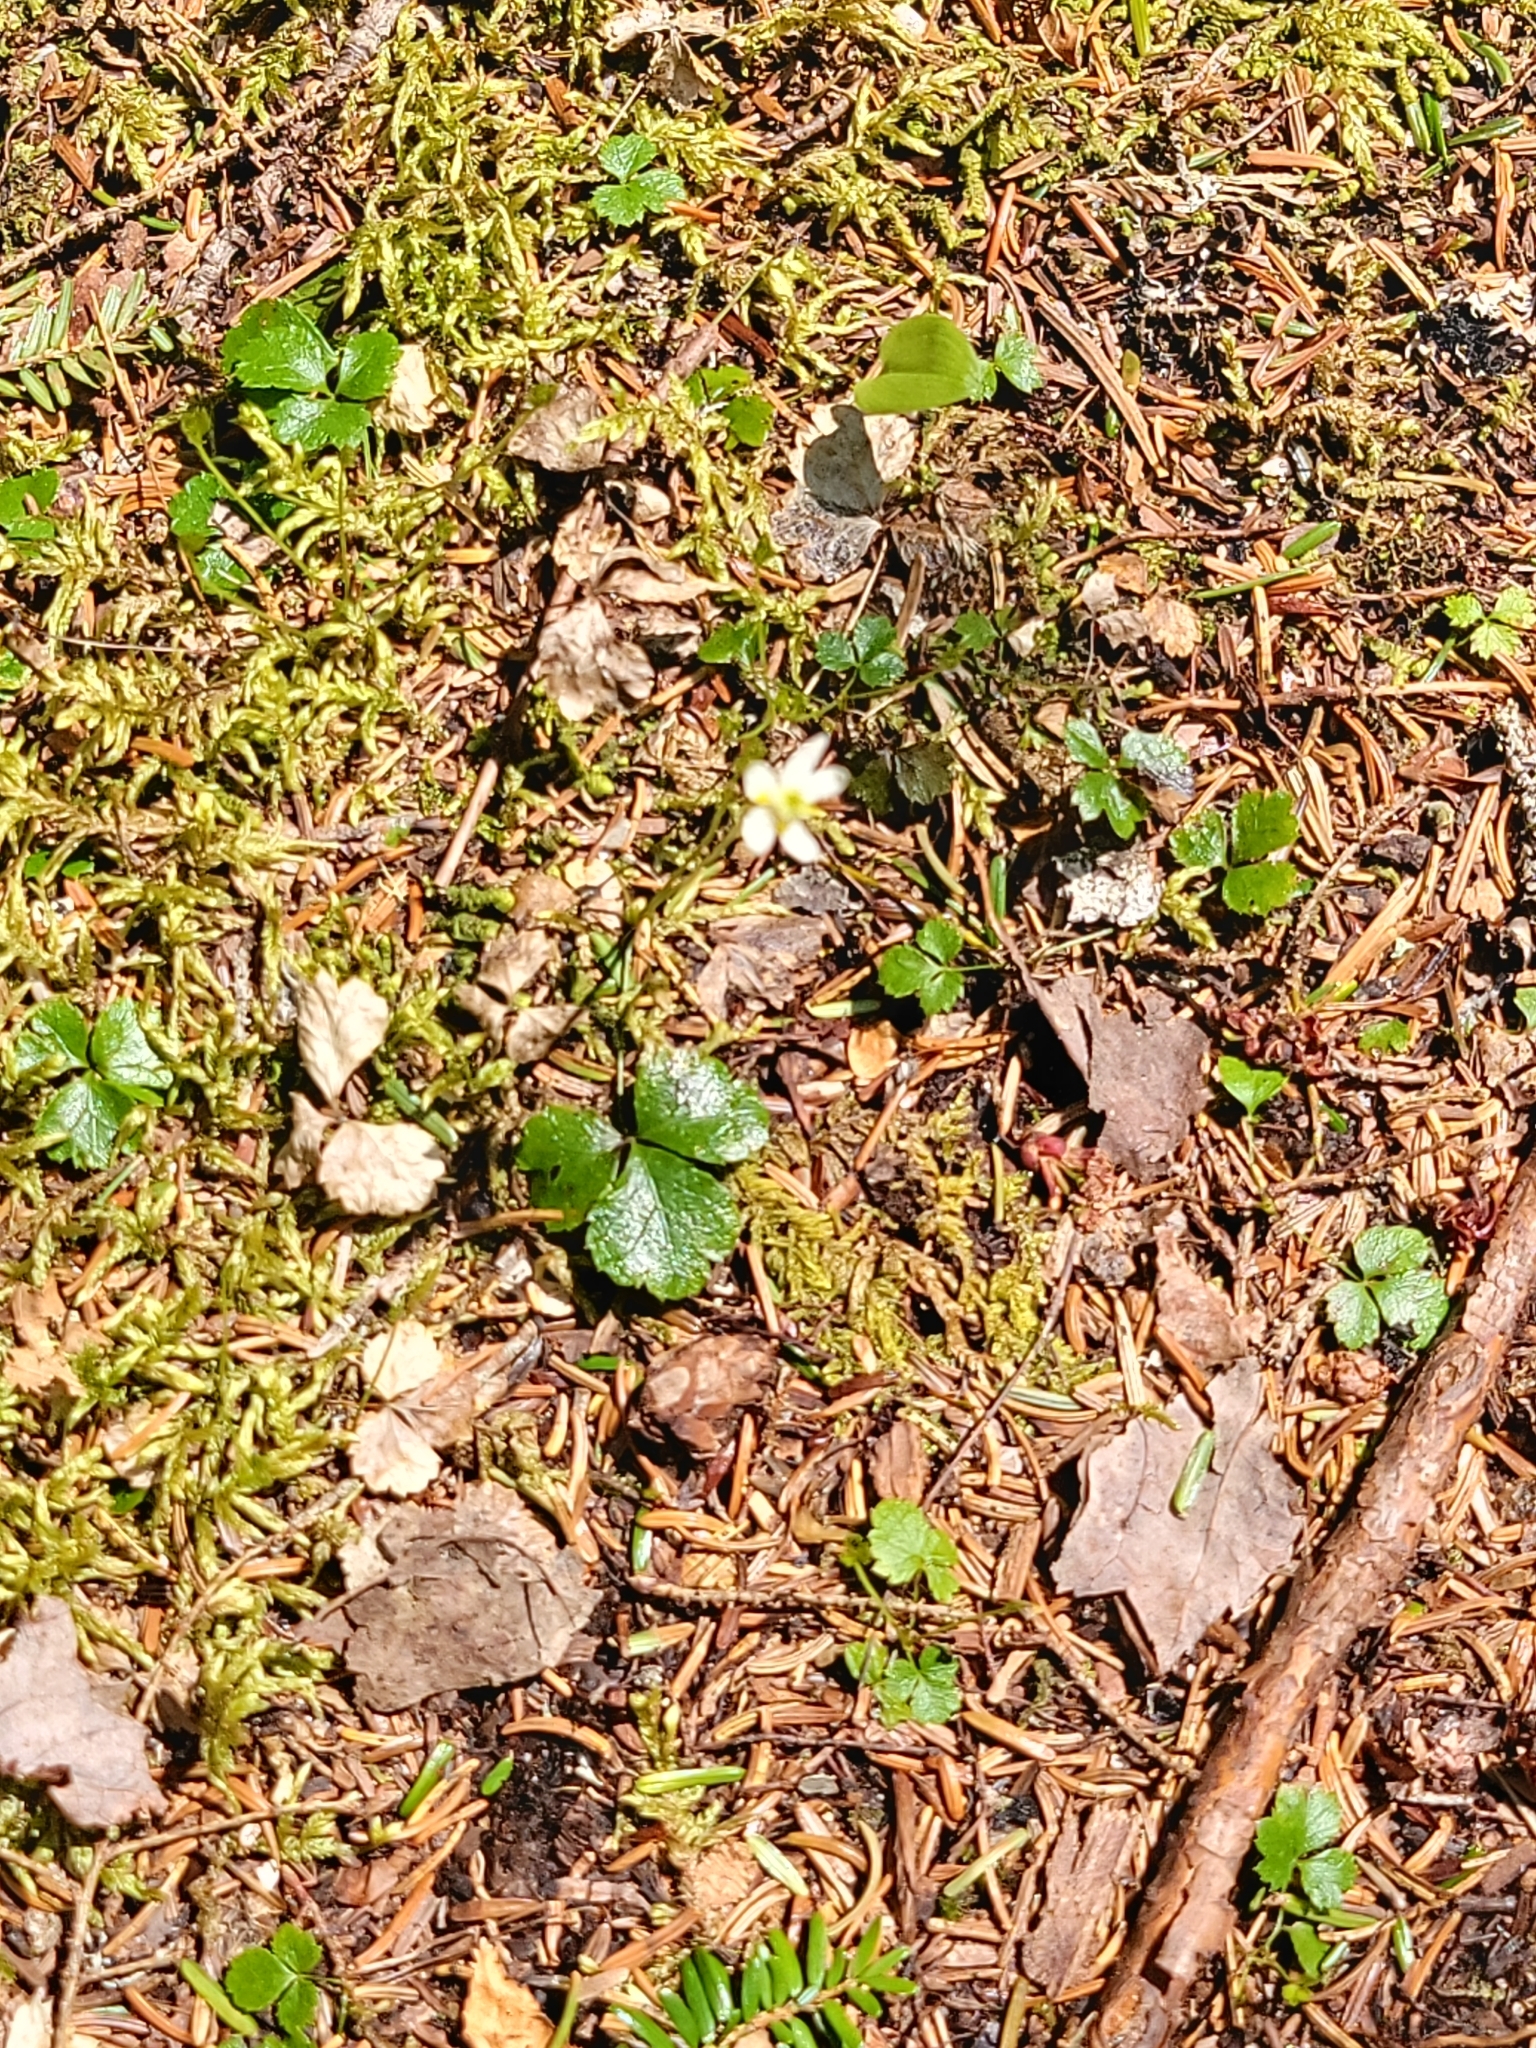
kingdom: Plantae
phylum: Tracheophyta
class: Magnoliopsida
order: Ranunculales
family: Ranunculaceae
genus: Coptis
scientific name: Coptis trifolia
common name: Canker-root
